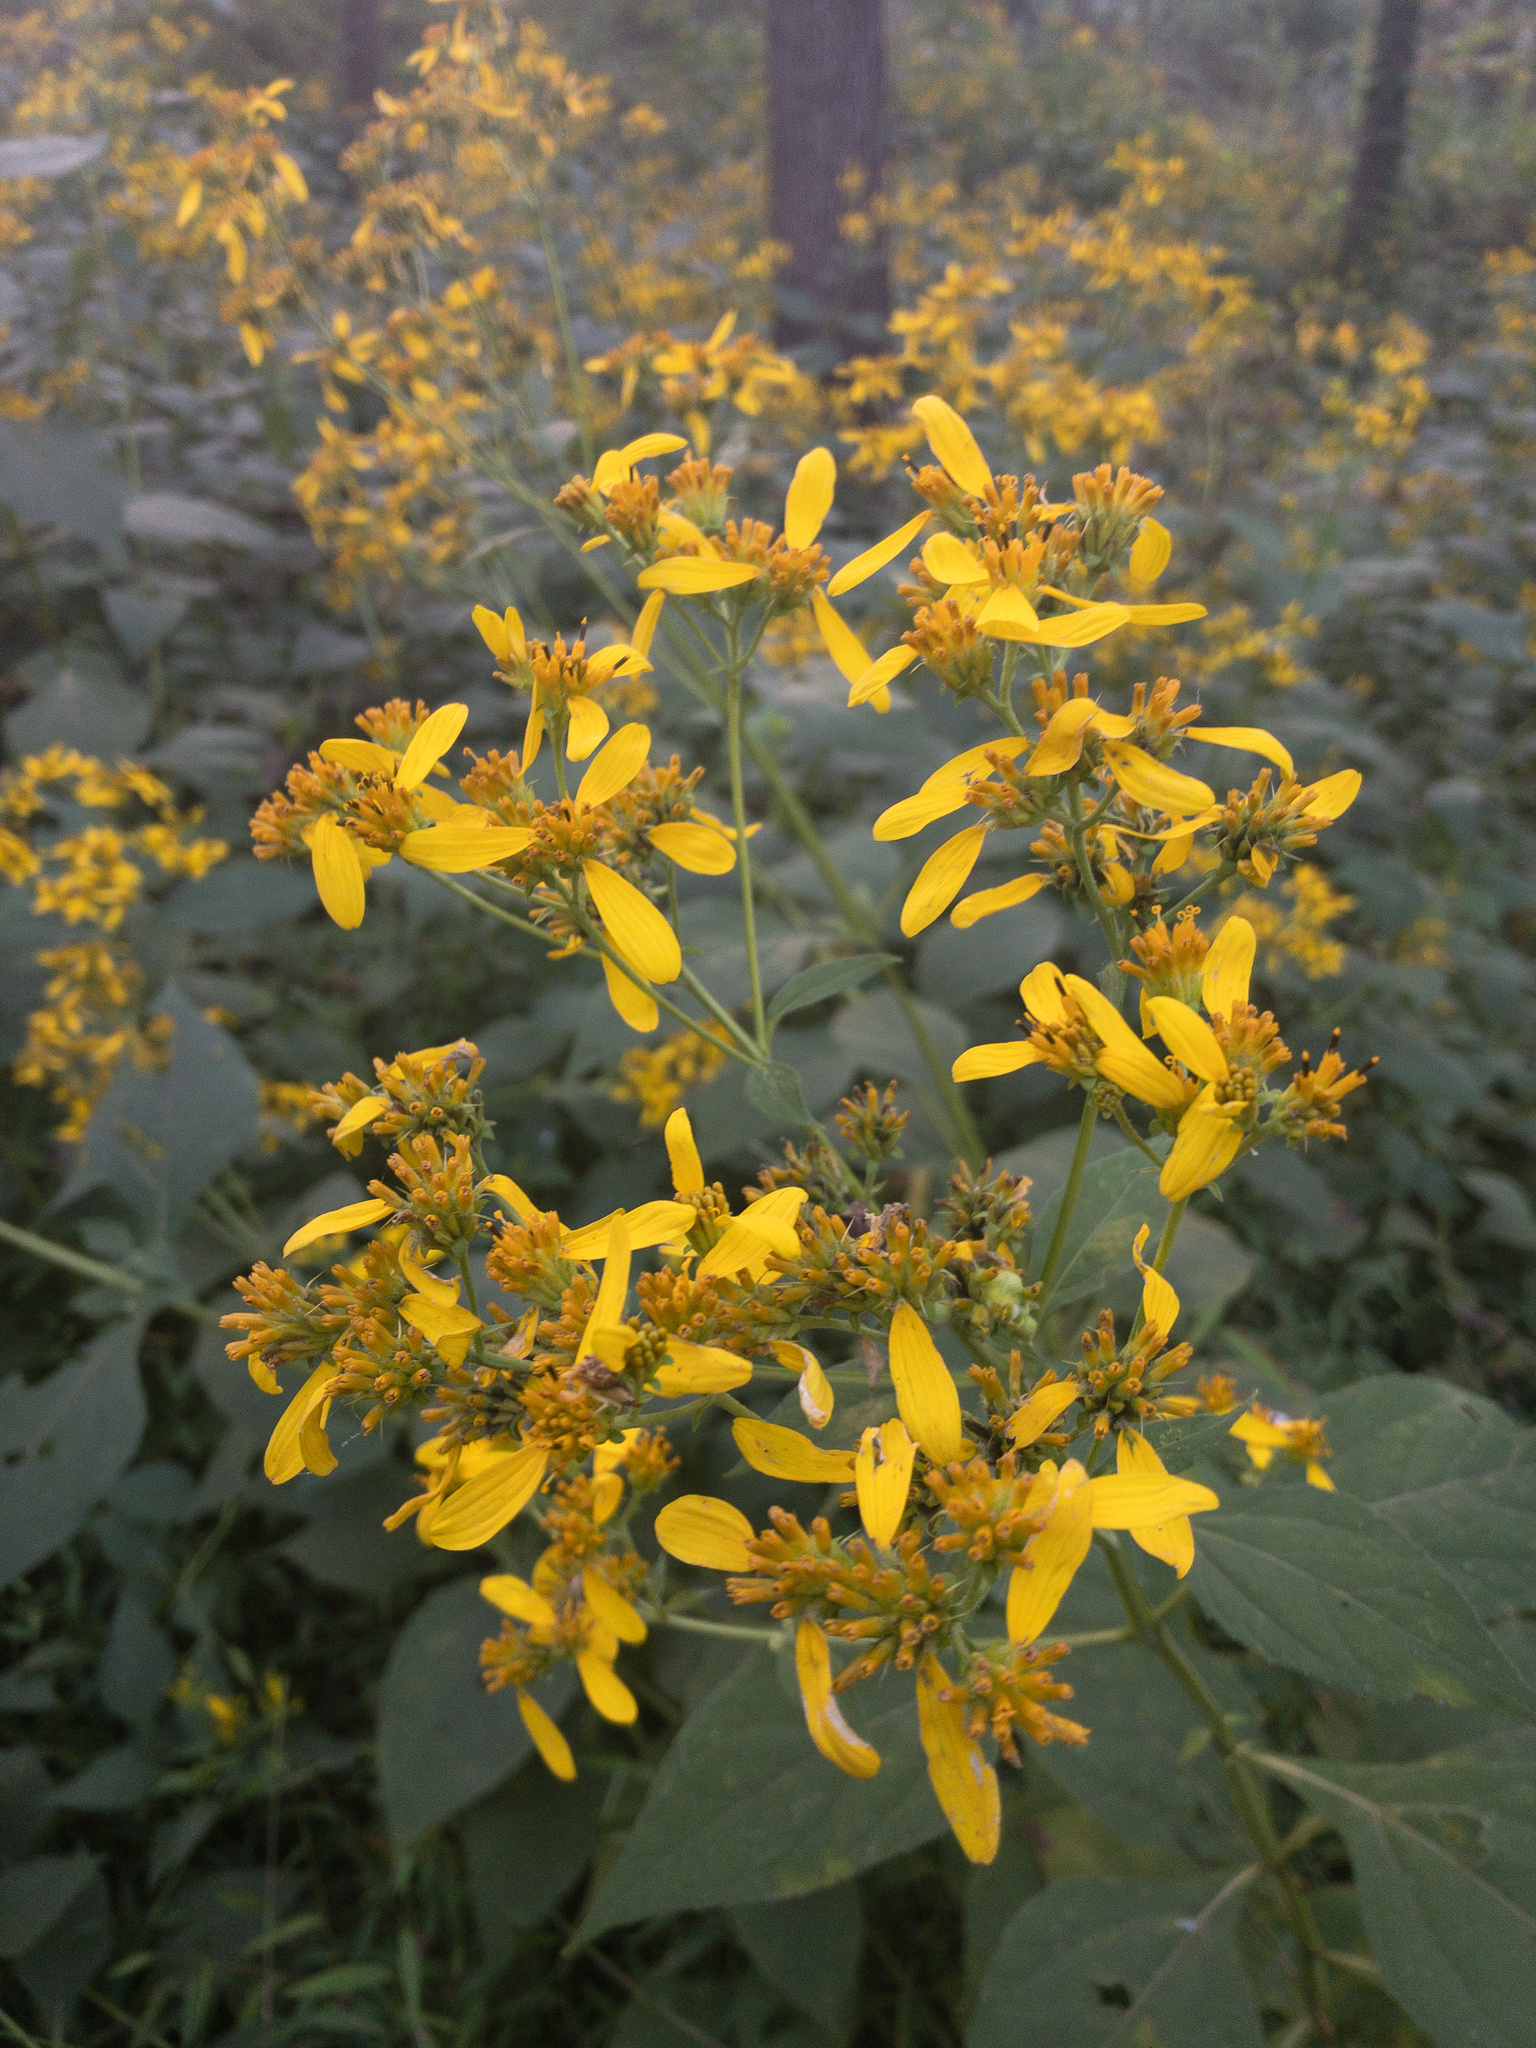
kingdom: Plantae
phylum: Tracheophyta
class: Magnoliopsida
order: Asterales
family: Asteraceae
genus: Verbesina
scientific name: Verbesina occidentalis
